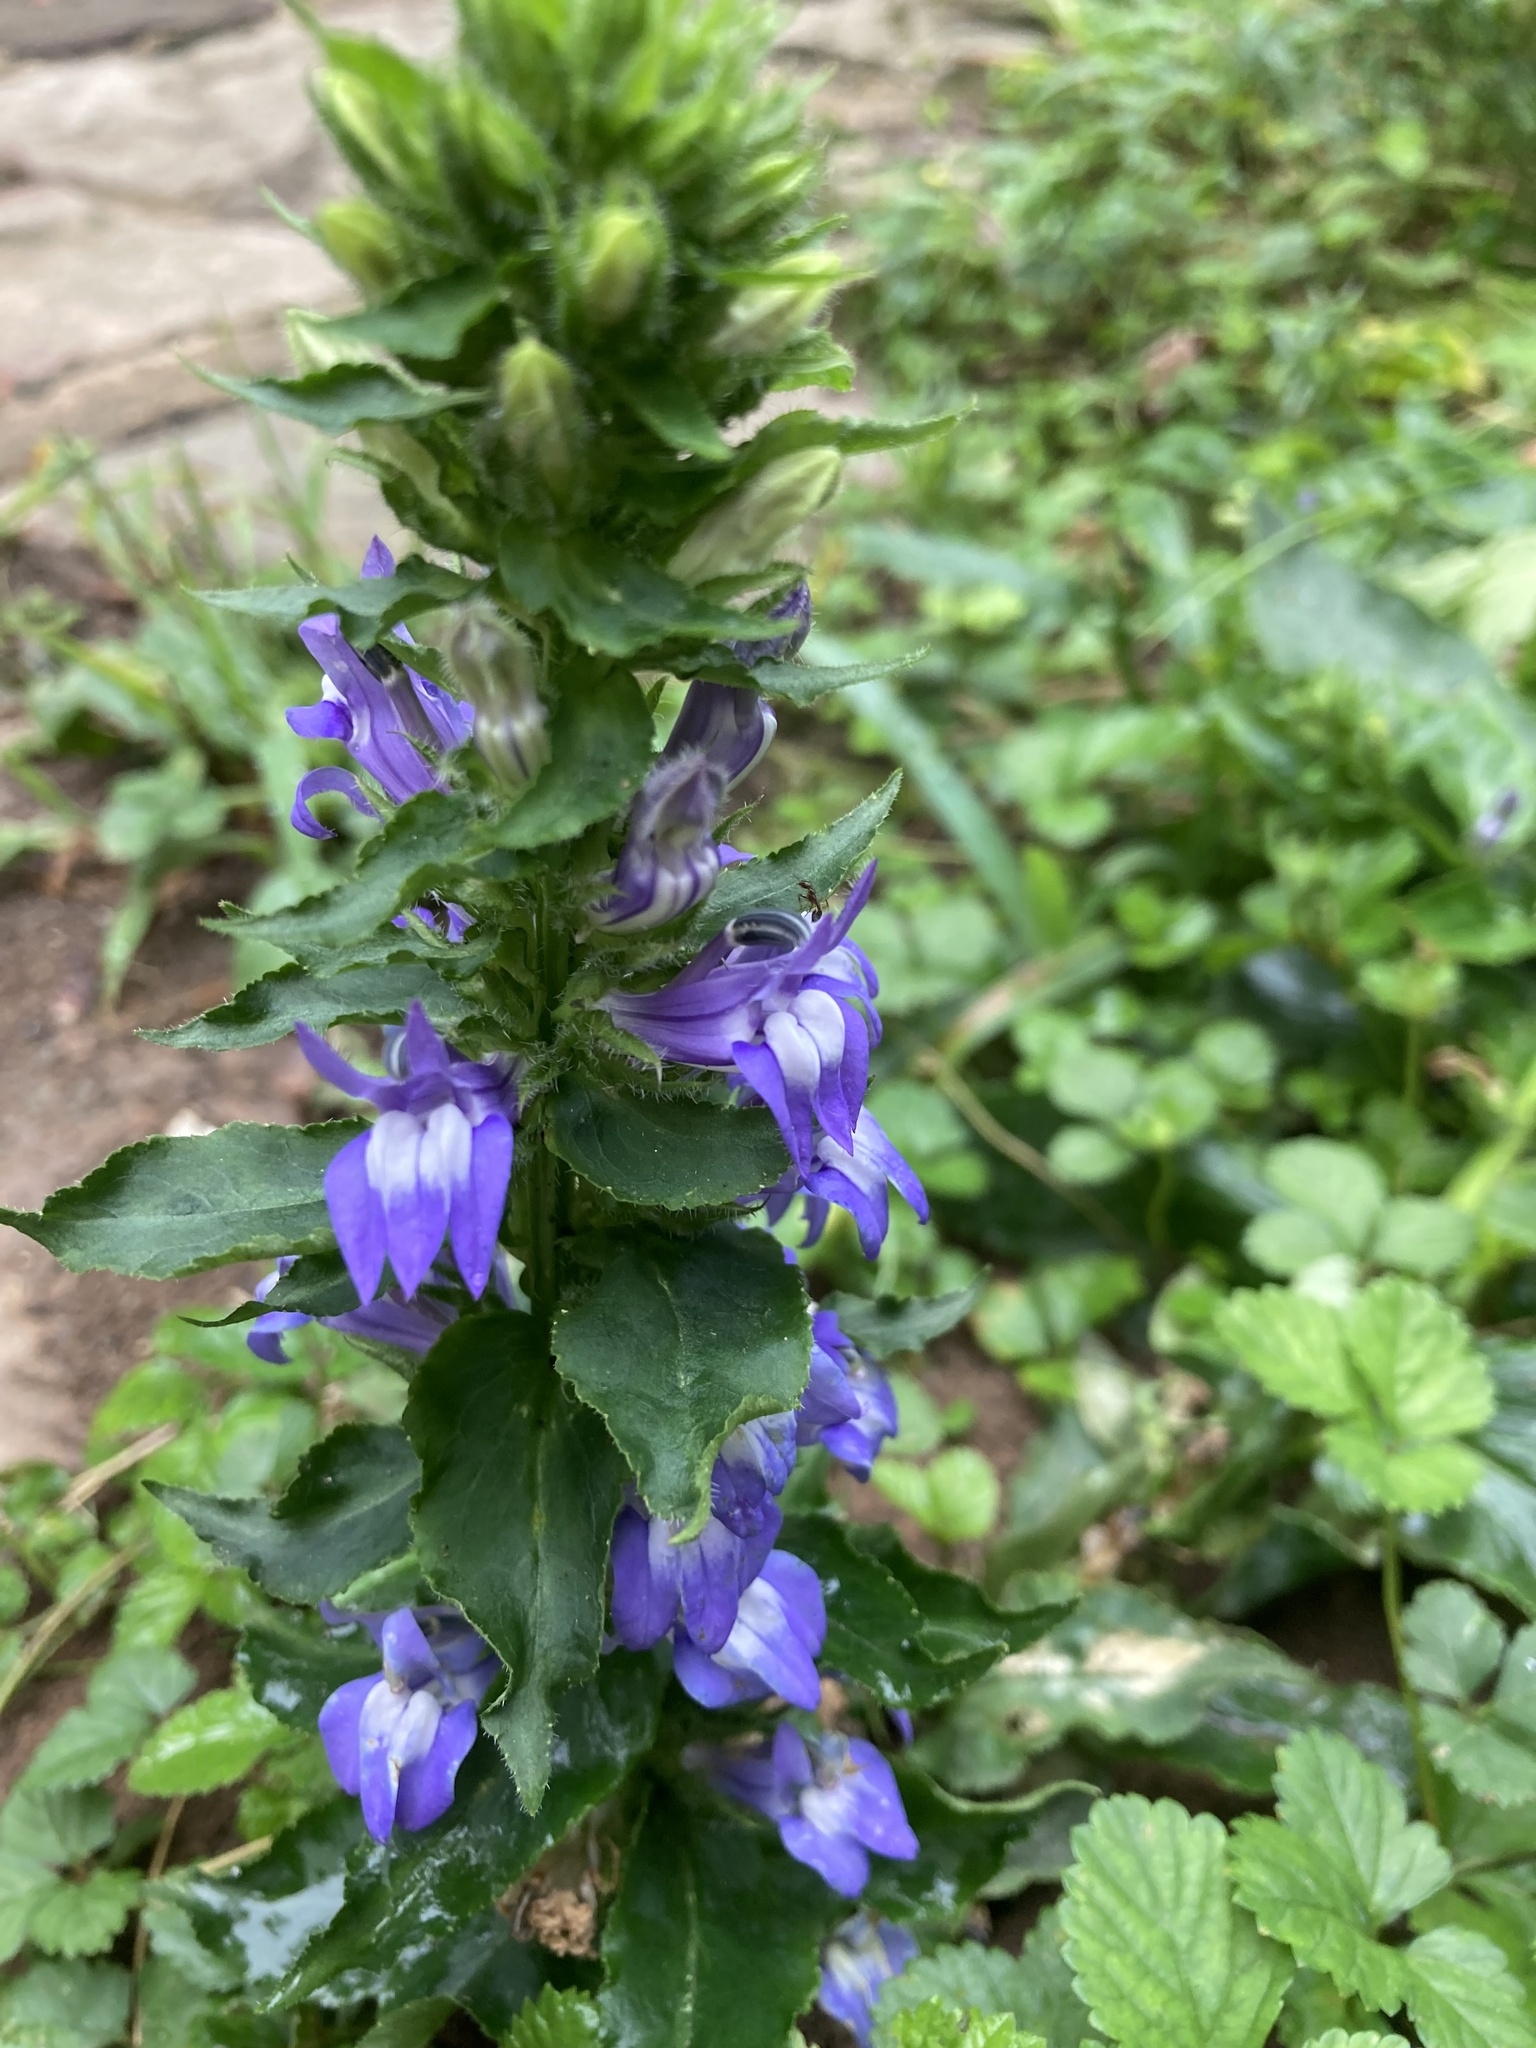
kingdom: Plantae
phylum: Tracheophyta
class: Magnoliopsida
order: Asterales
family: Campanulaceae
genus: Lobelia
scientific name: Lobelia siphilitica
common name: Great lobelia
